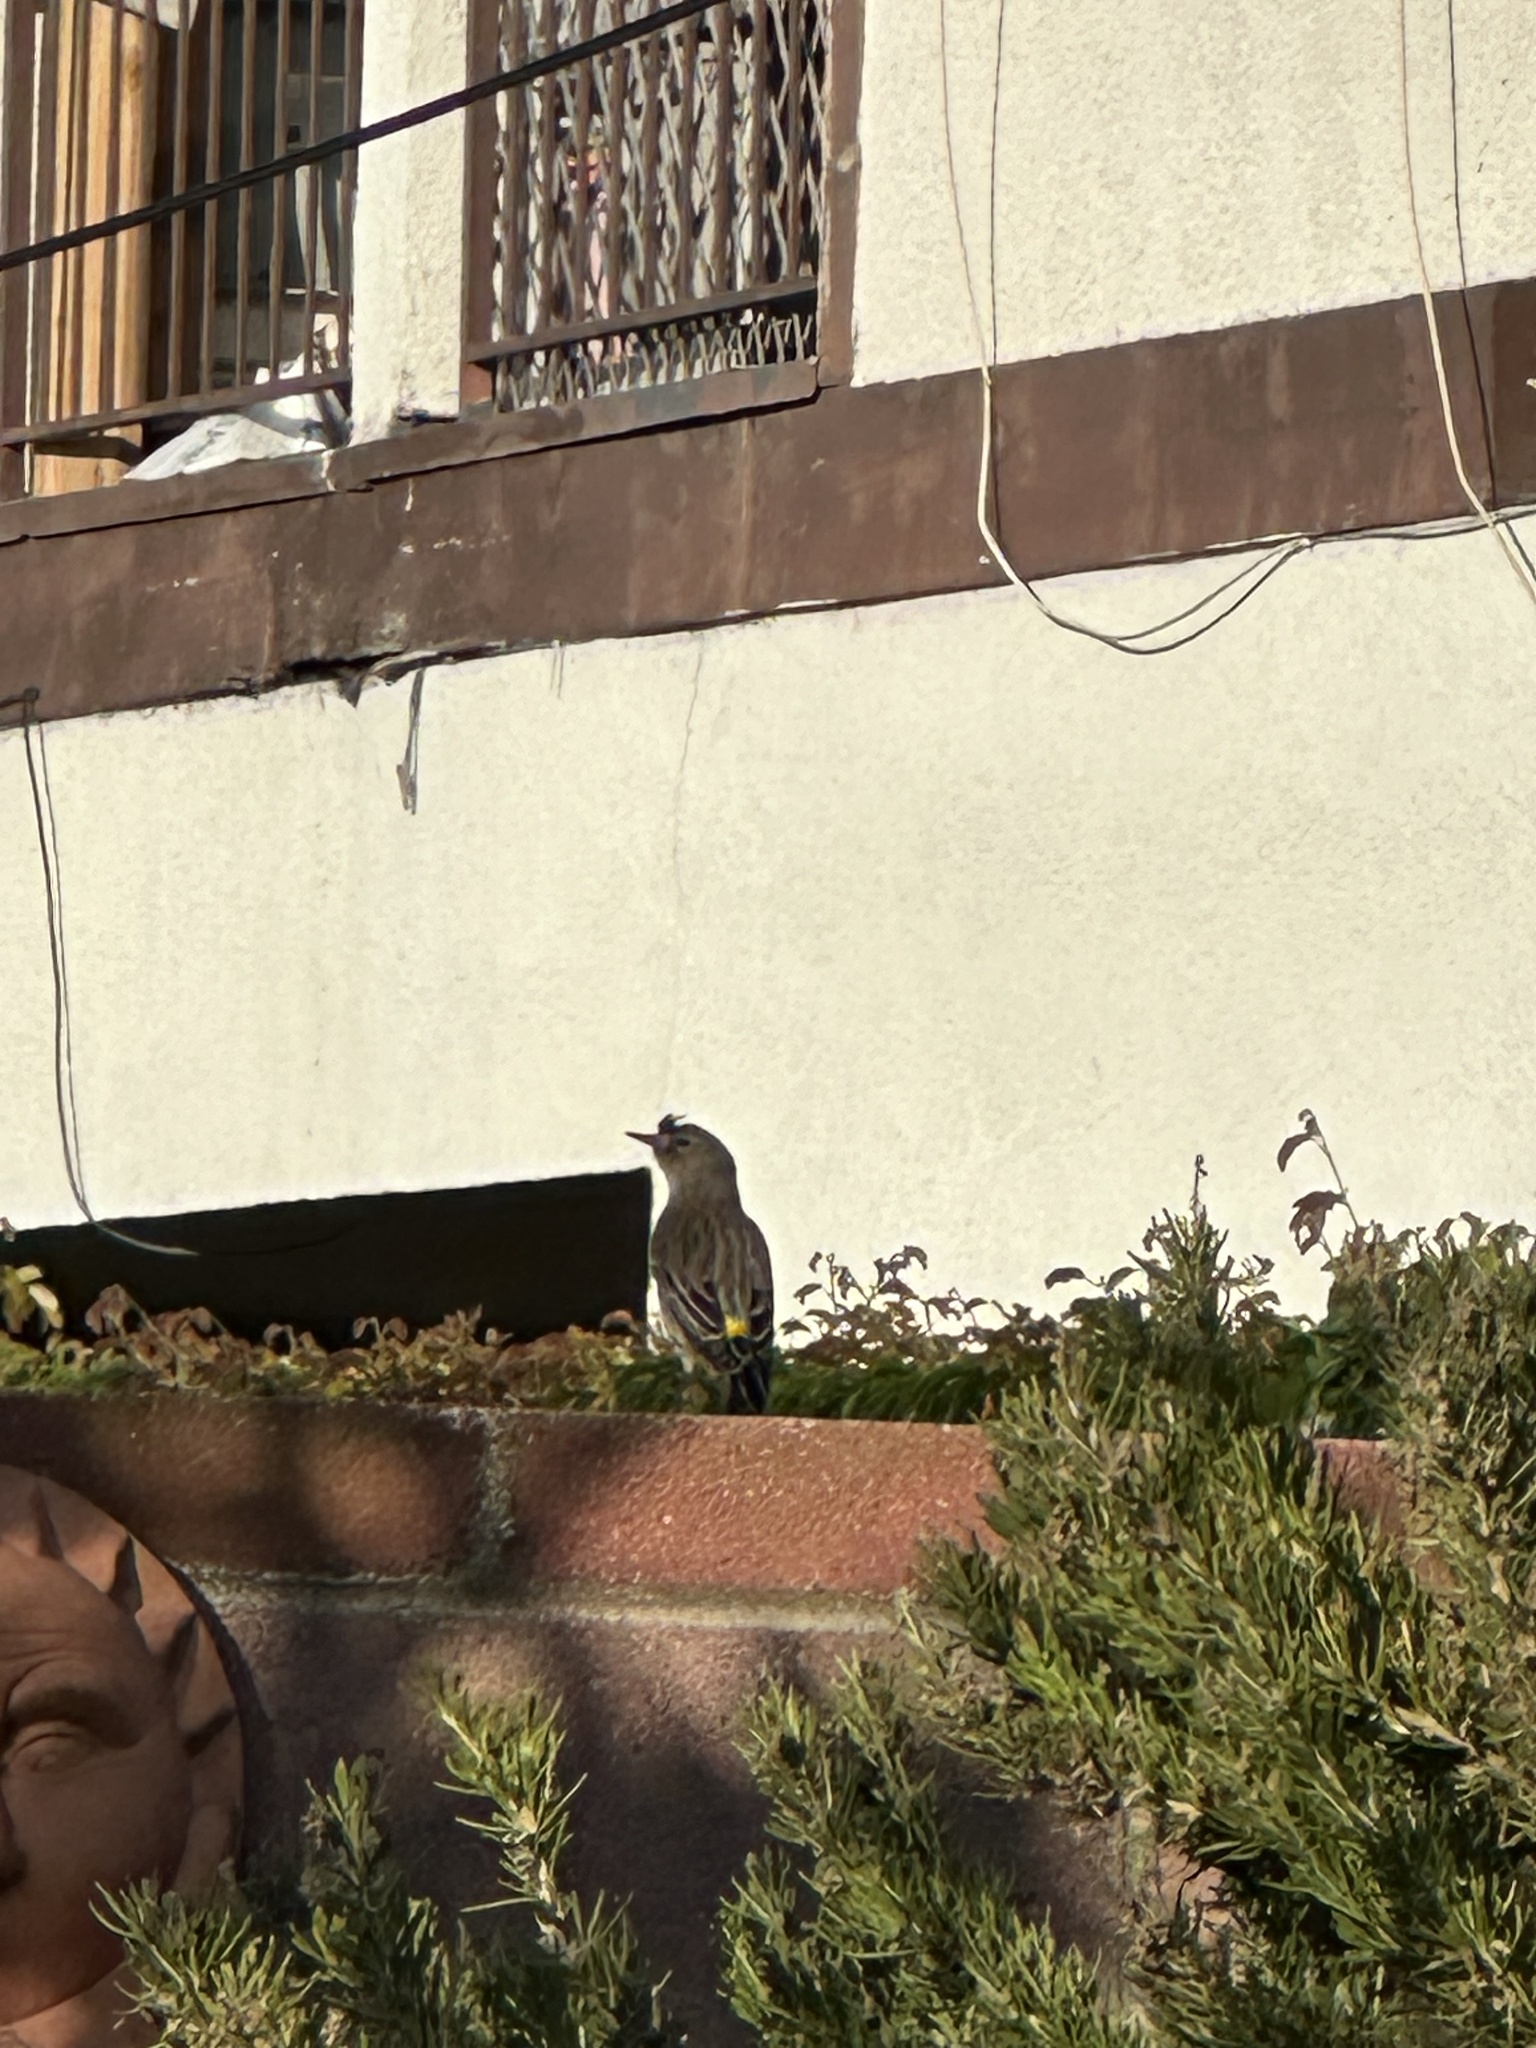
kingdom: Animalia
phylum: Chordata
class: Aves
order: Passeriformes
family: Parulidae
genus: Setophaga
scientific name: Setophaga auduboni
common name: Audubon's warbler
